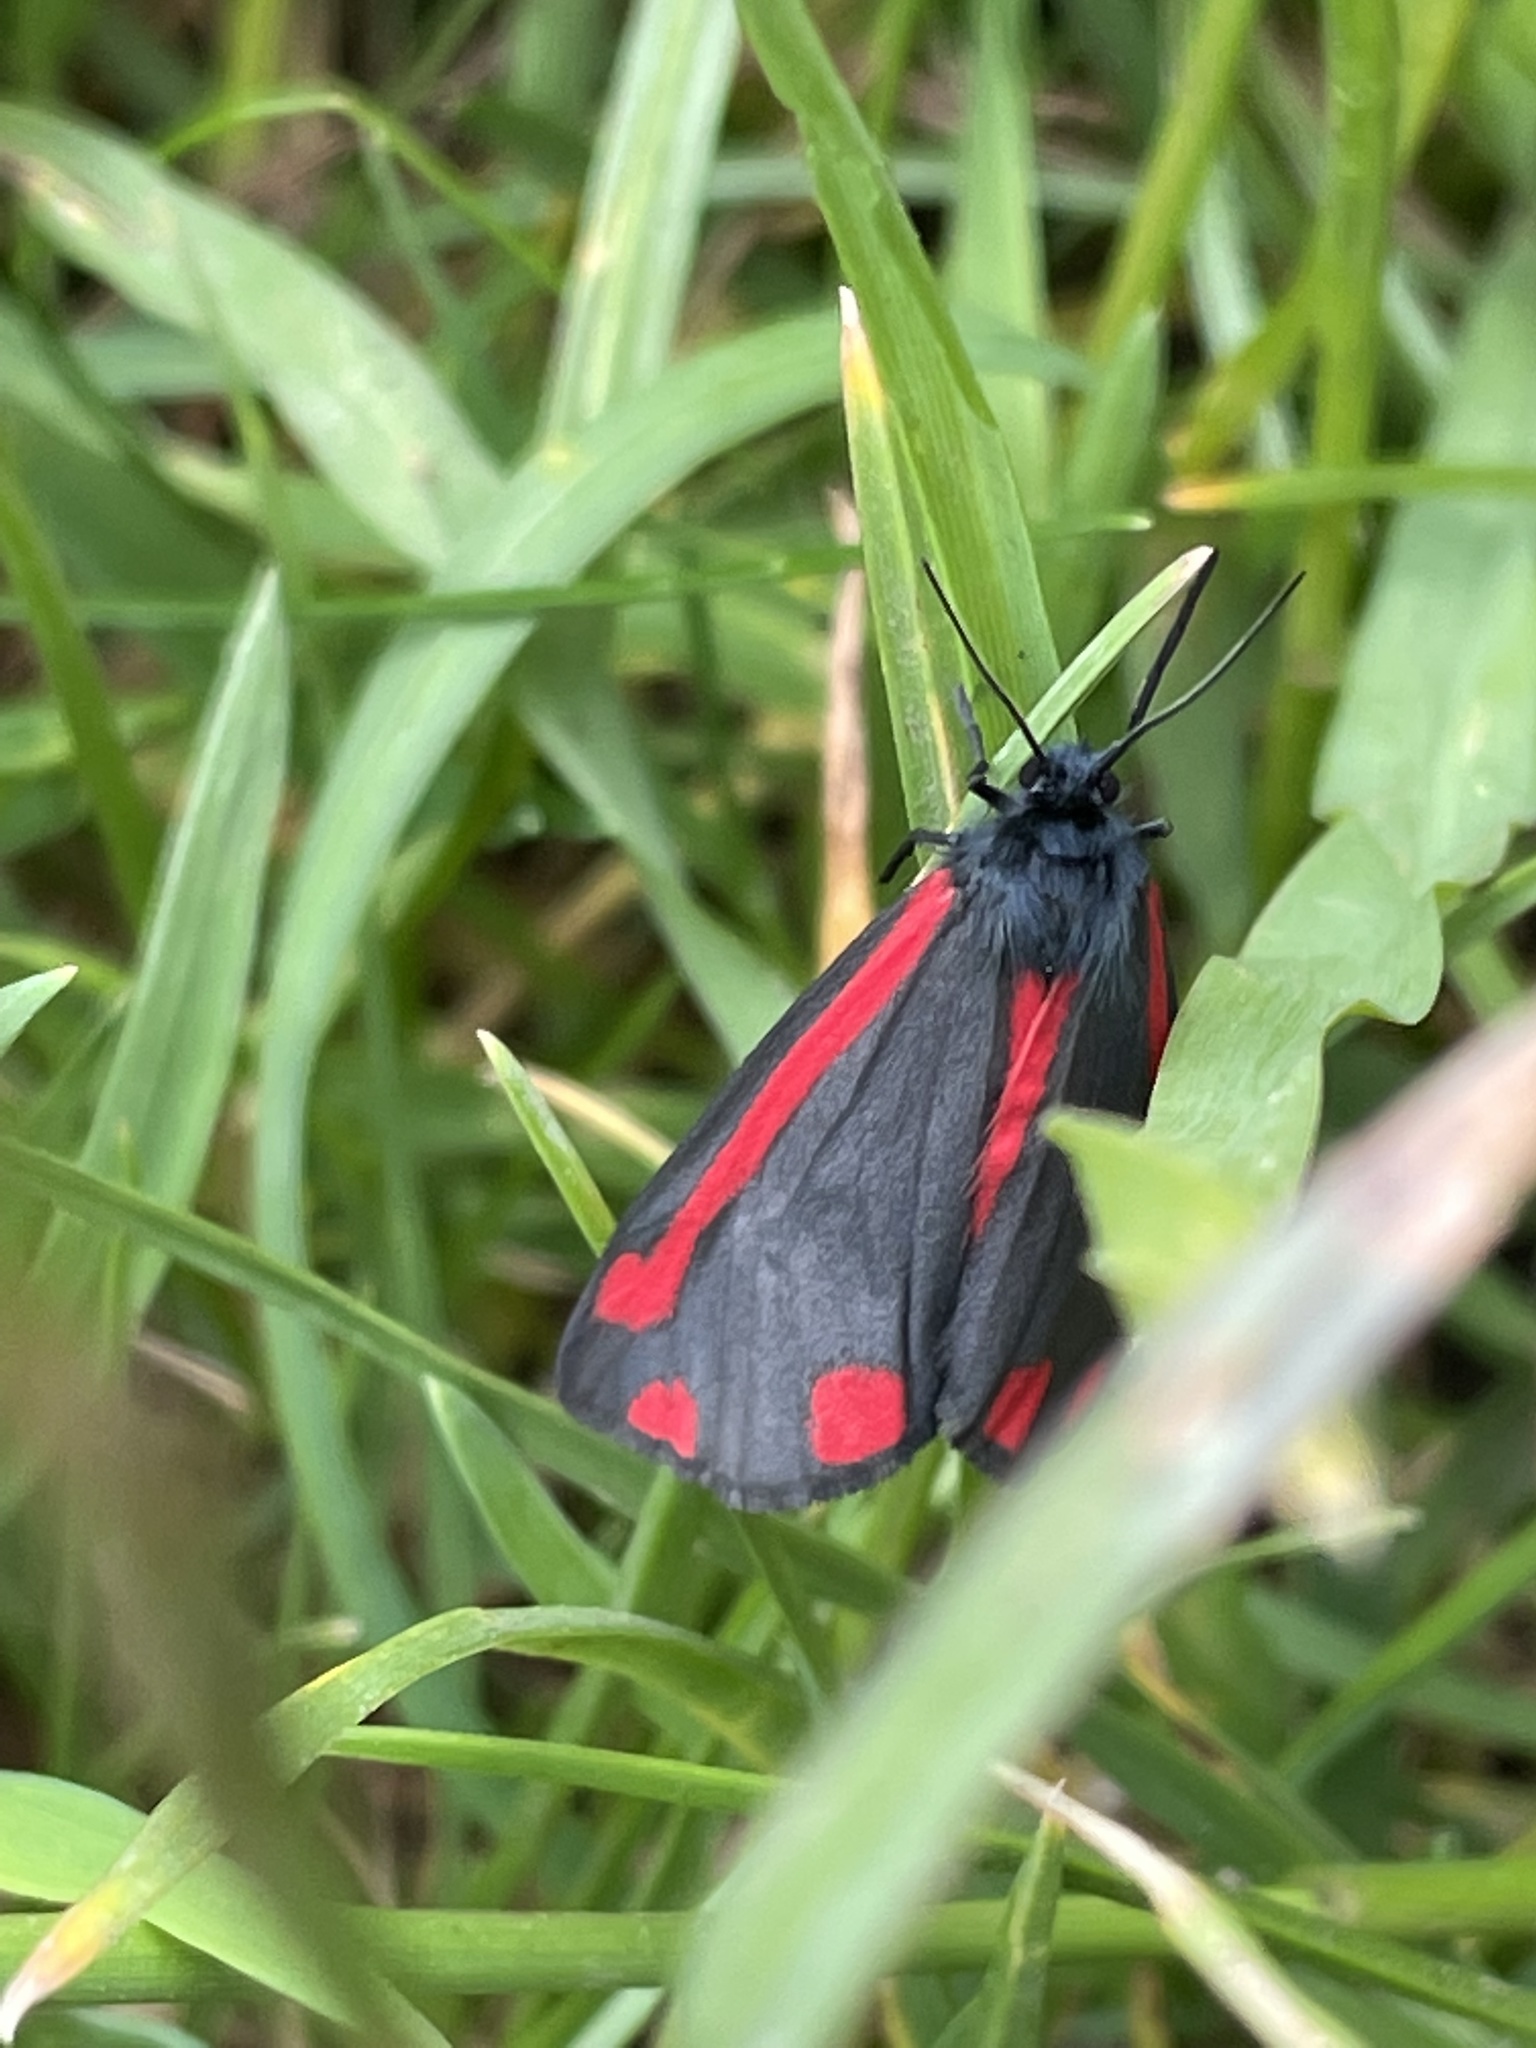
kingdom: Animalia
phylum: Arthropoda
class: Insecta
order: Lepidoptera
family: Erebidae
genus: Tyria
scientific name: Tyria jacobaeae
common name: Cinnabar
